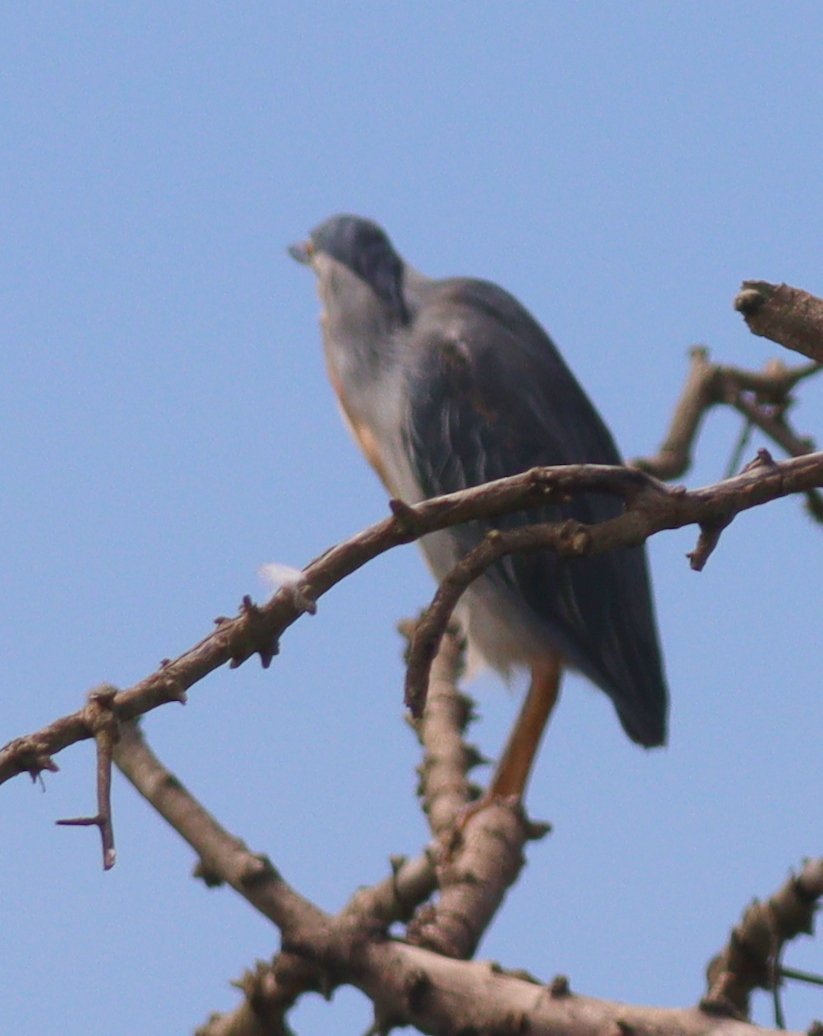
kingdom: Animalia
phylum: Chordata
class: Aves
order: Pelecaniformes
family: Ardeidae
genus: Butorides
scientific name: Butorides striata
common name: Striated heron
